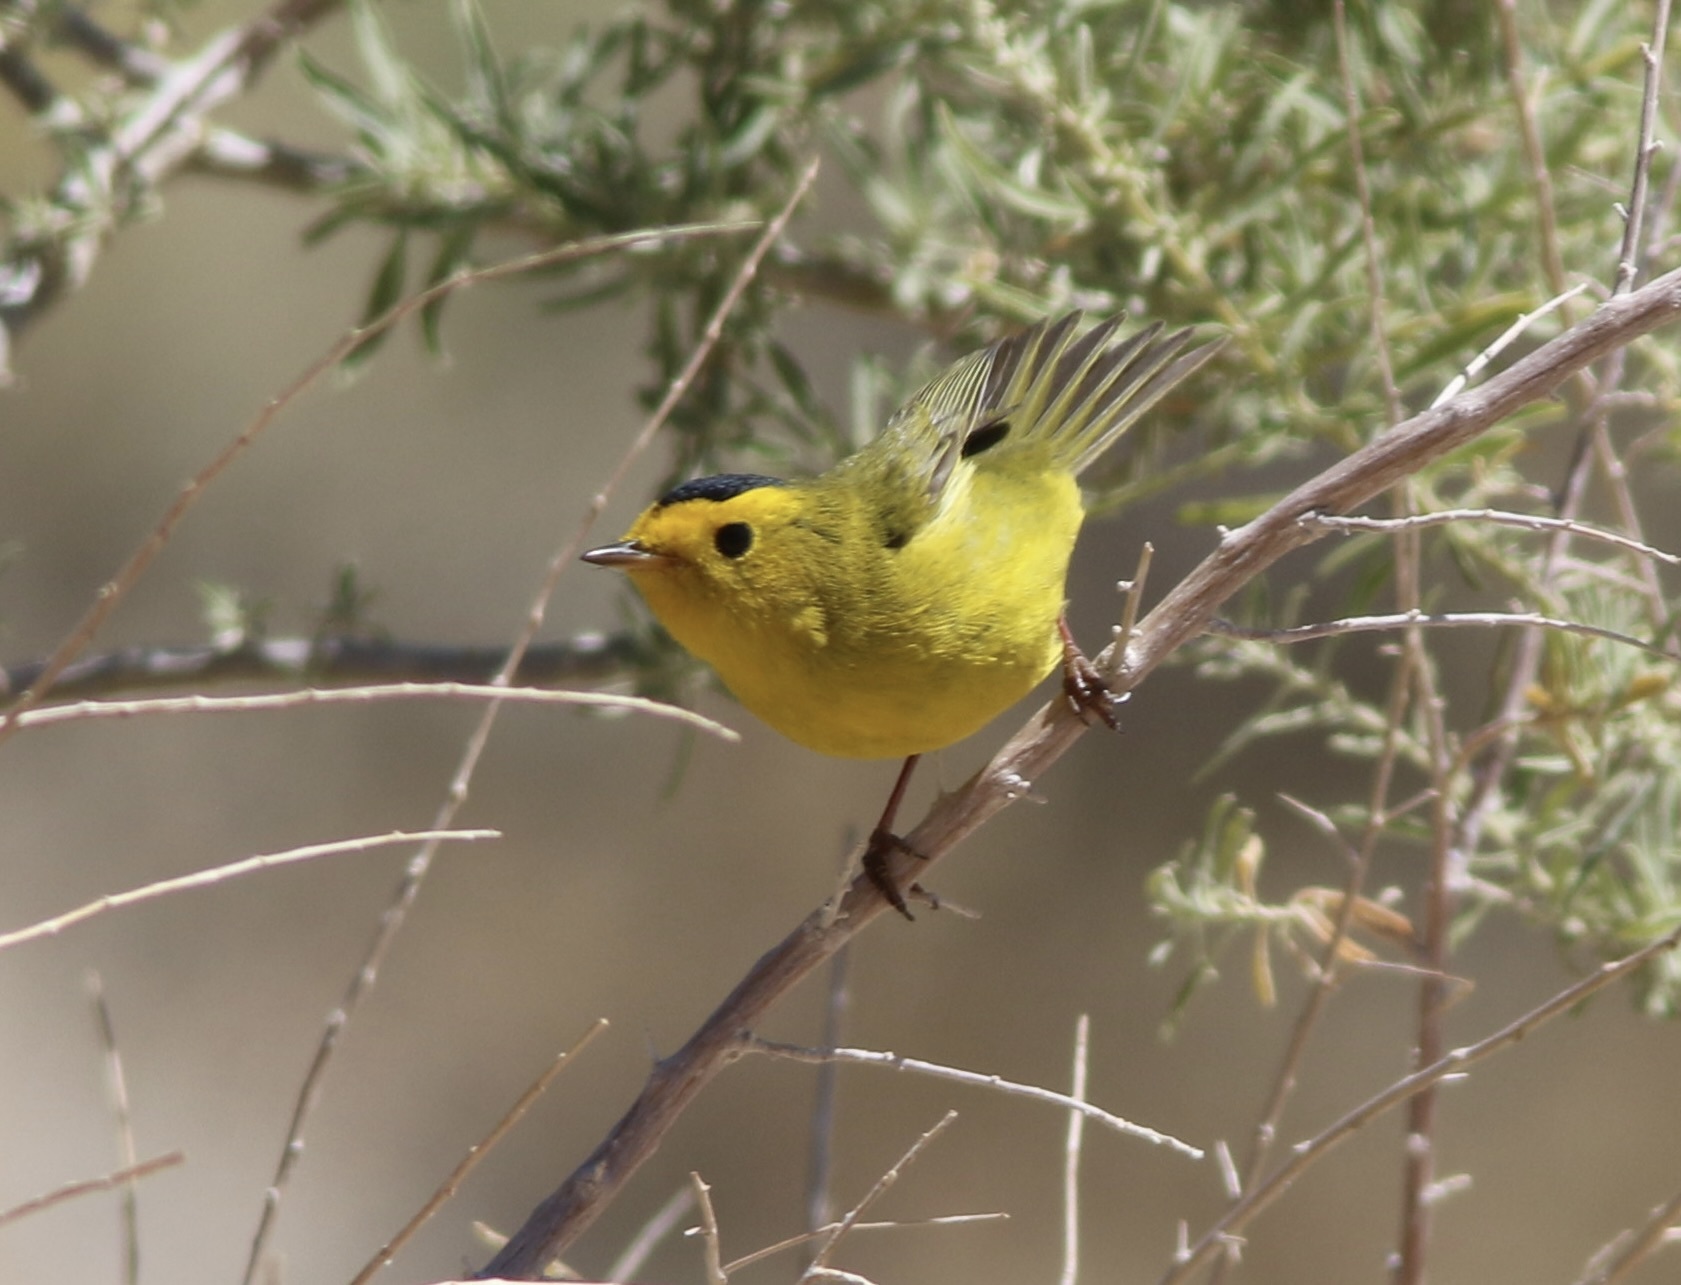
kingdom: Animalia
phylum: Chordata
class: Aves
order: Passeriformes
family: Parulidae
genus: Cardellina
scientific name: Cardellina pusilla
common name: Wilson's warbler
